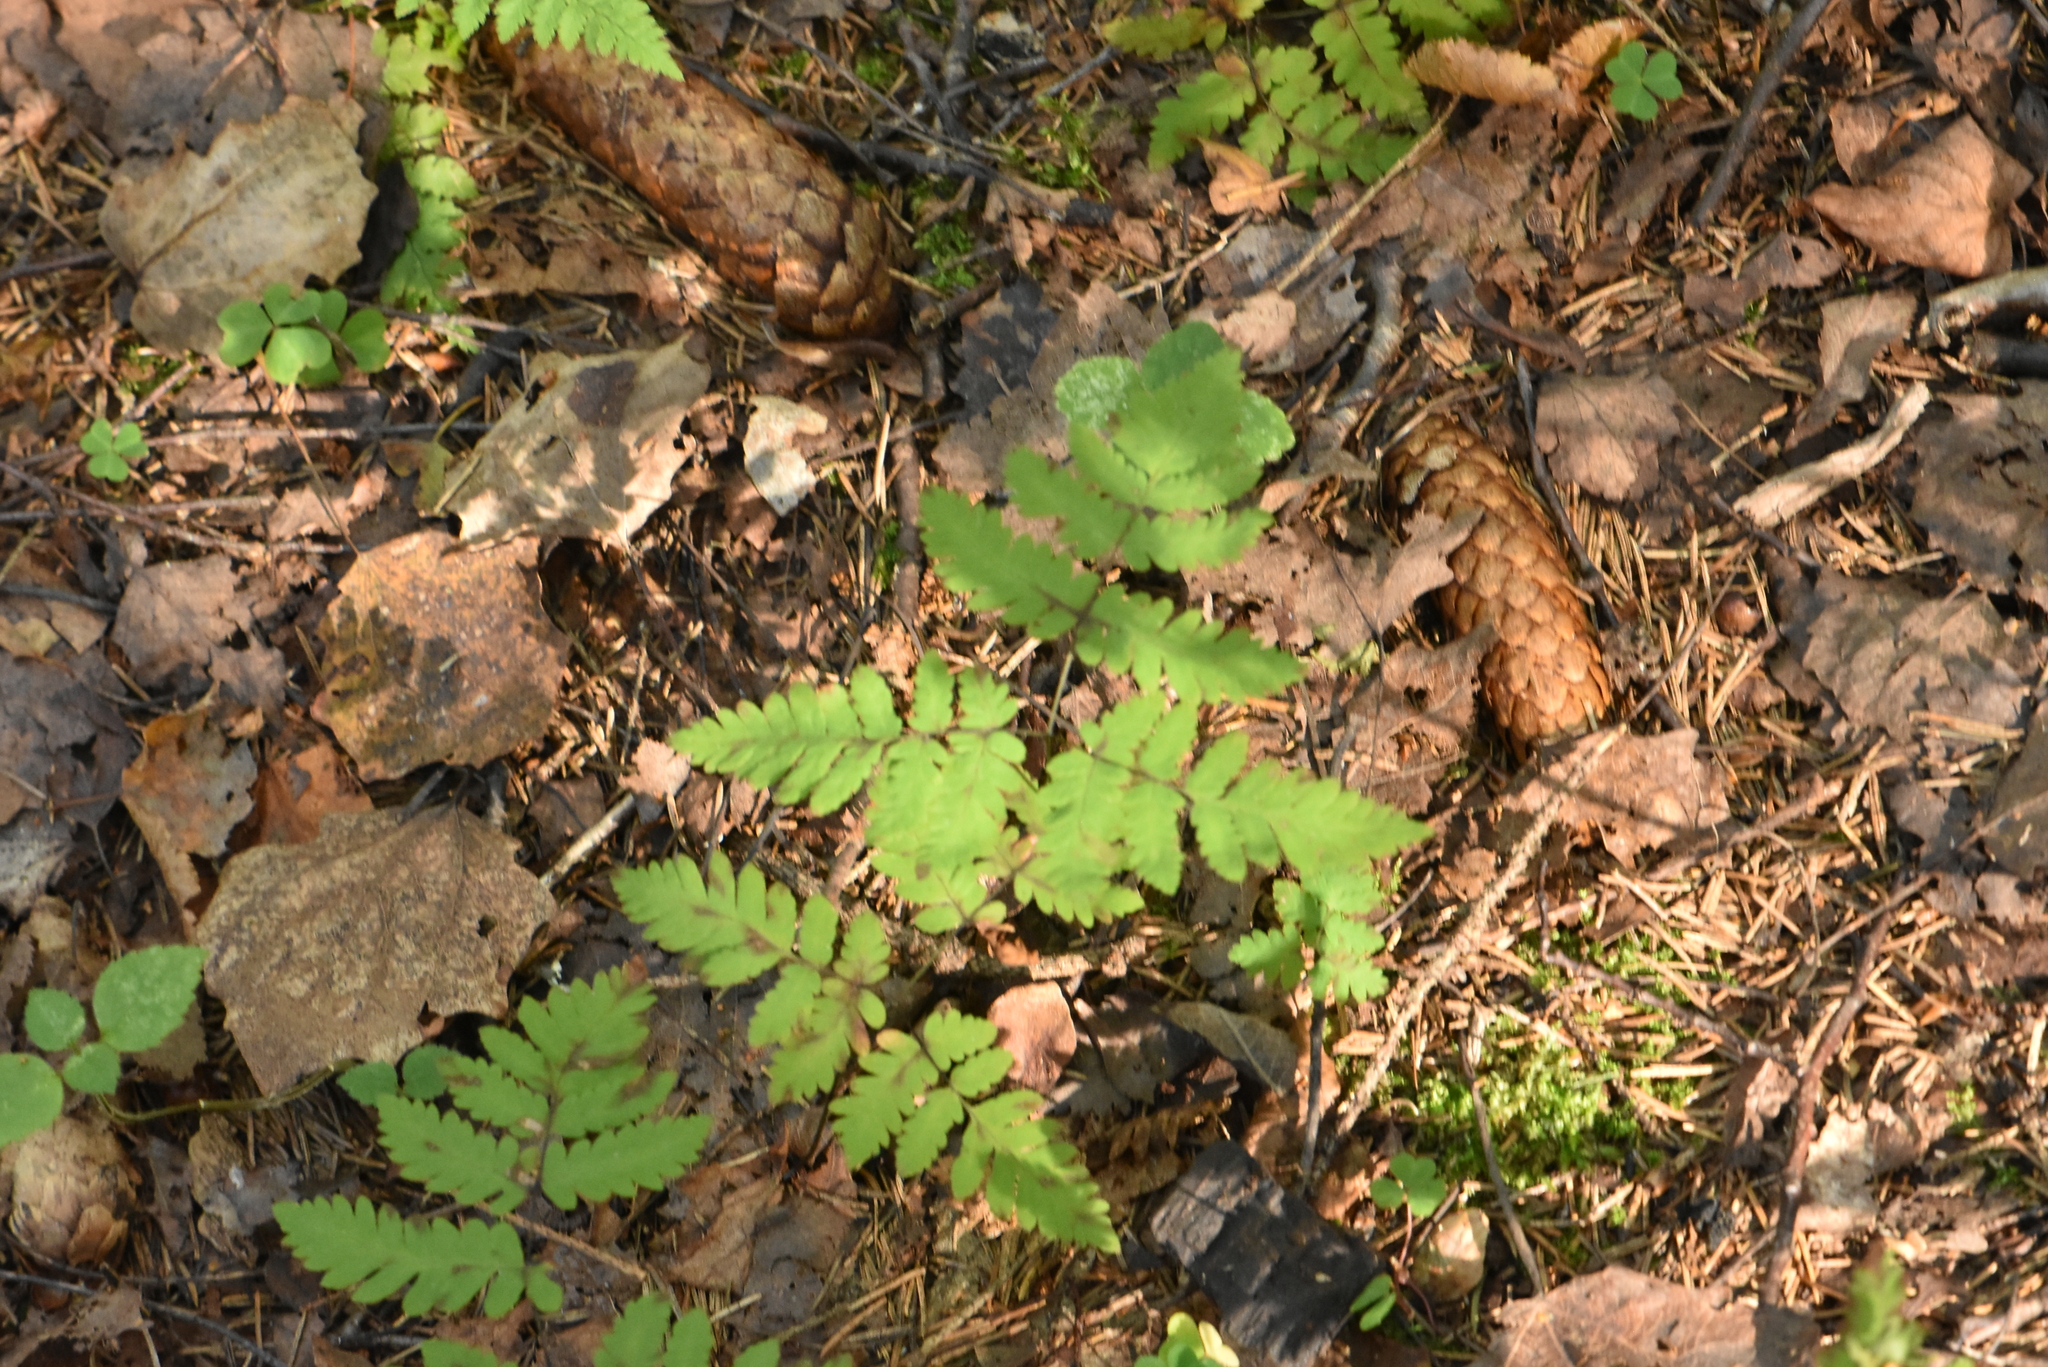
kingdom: Plantae
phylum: Tracheophyta
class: Polypodiopsida
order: Polypodiales
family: Cystopteridaceae
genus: Gymnocarpium
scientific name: Gymnocarpium dryopteris
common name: Oak fern
